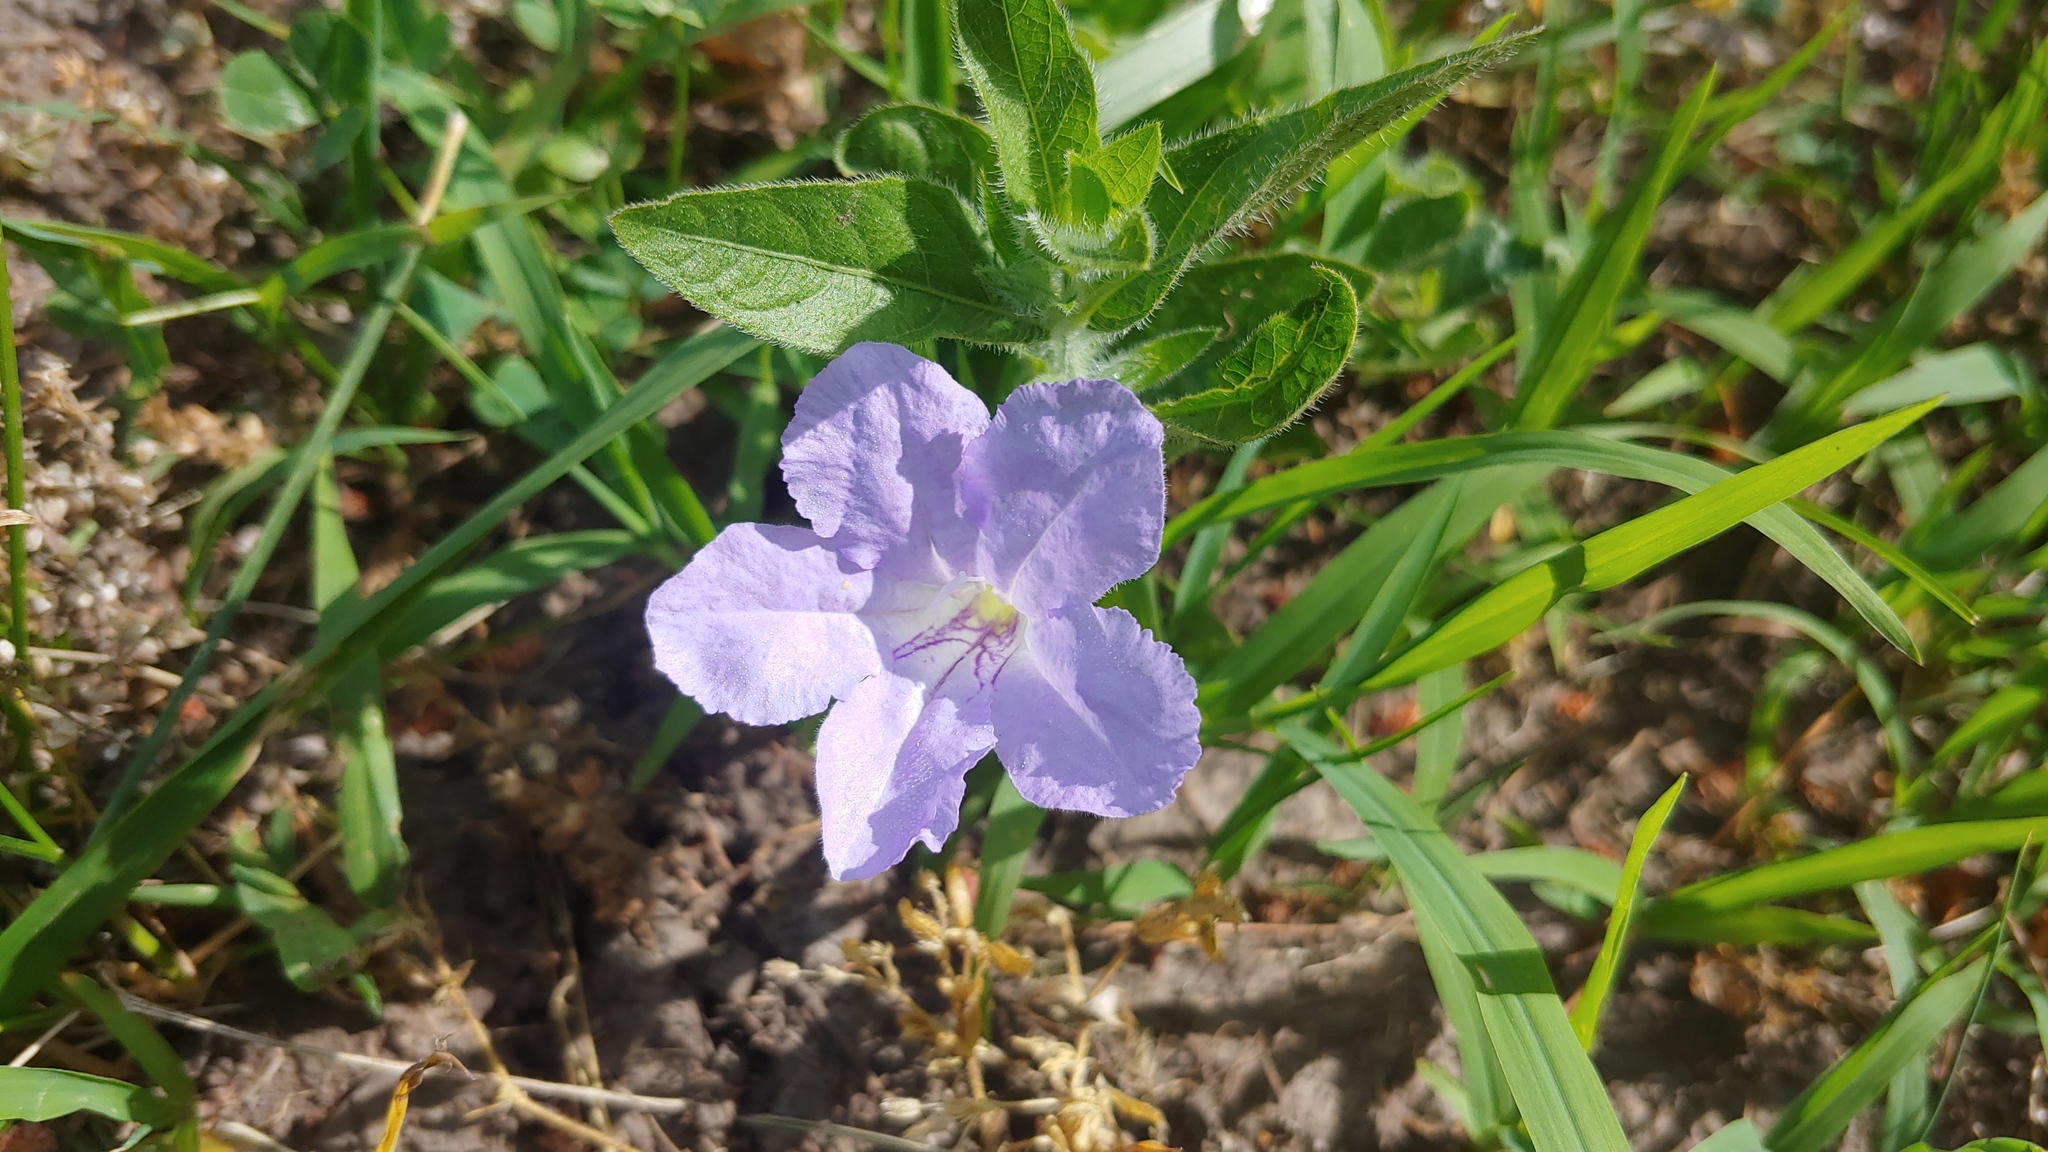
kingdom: Plantae
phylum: Tracheophyta
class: Magnoliopsida
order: Lamiales
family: Acanthaceae
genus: Ruellia
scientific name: Ruellia humilis
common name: Fringe-leaf ruellia
